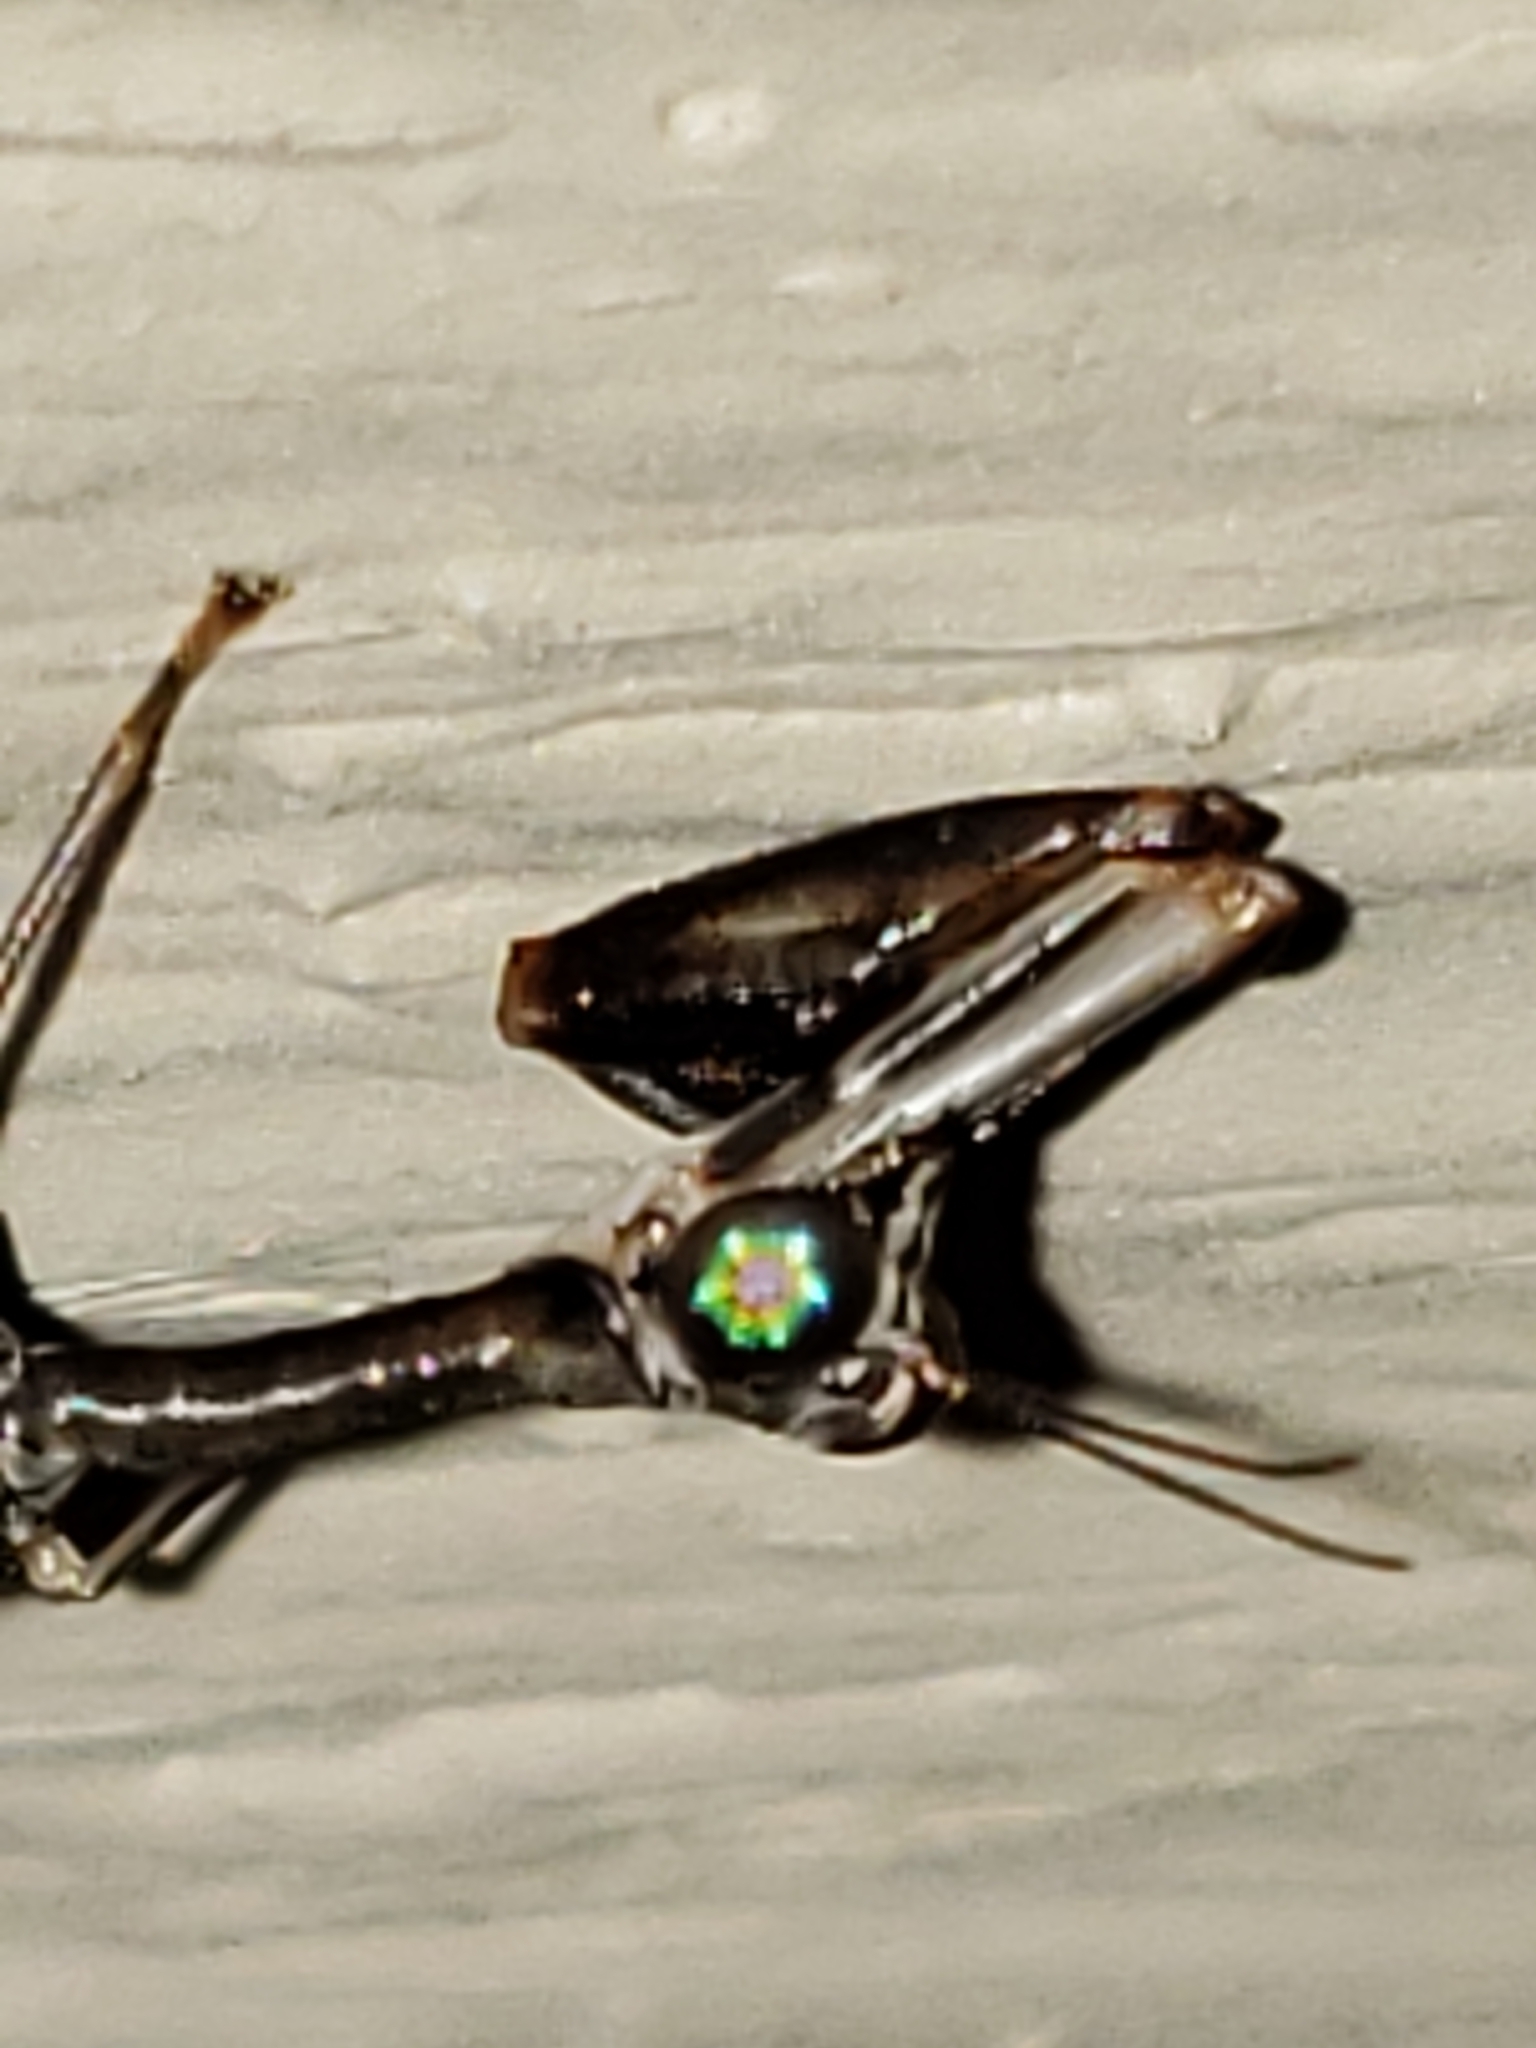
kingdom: Animalia
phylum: Arthropoda
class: Insecta
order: Neuroptera
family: Mantispidae
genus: Dicromantispa
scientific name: Dicromantispa sayi
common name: Say's mantidfly
